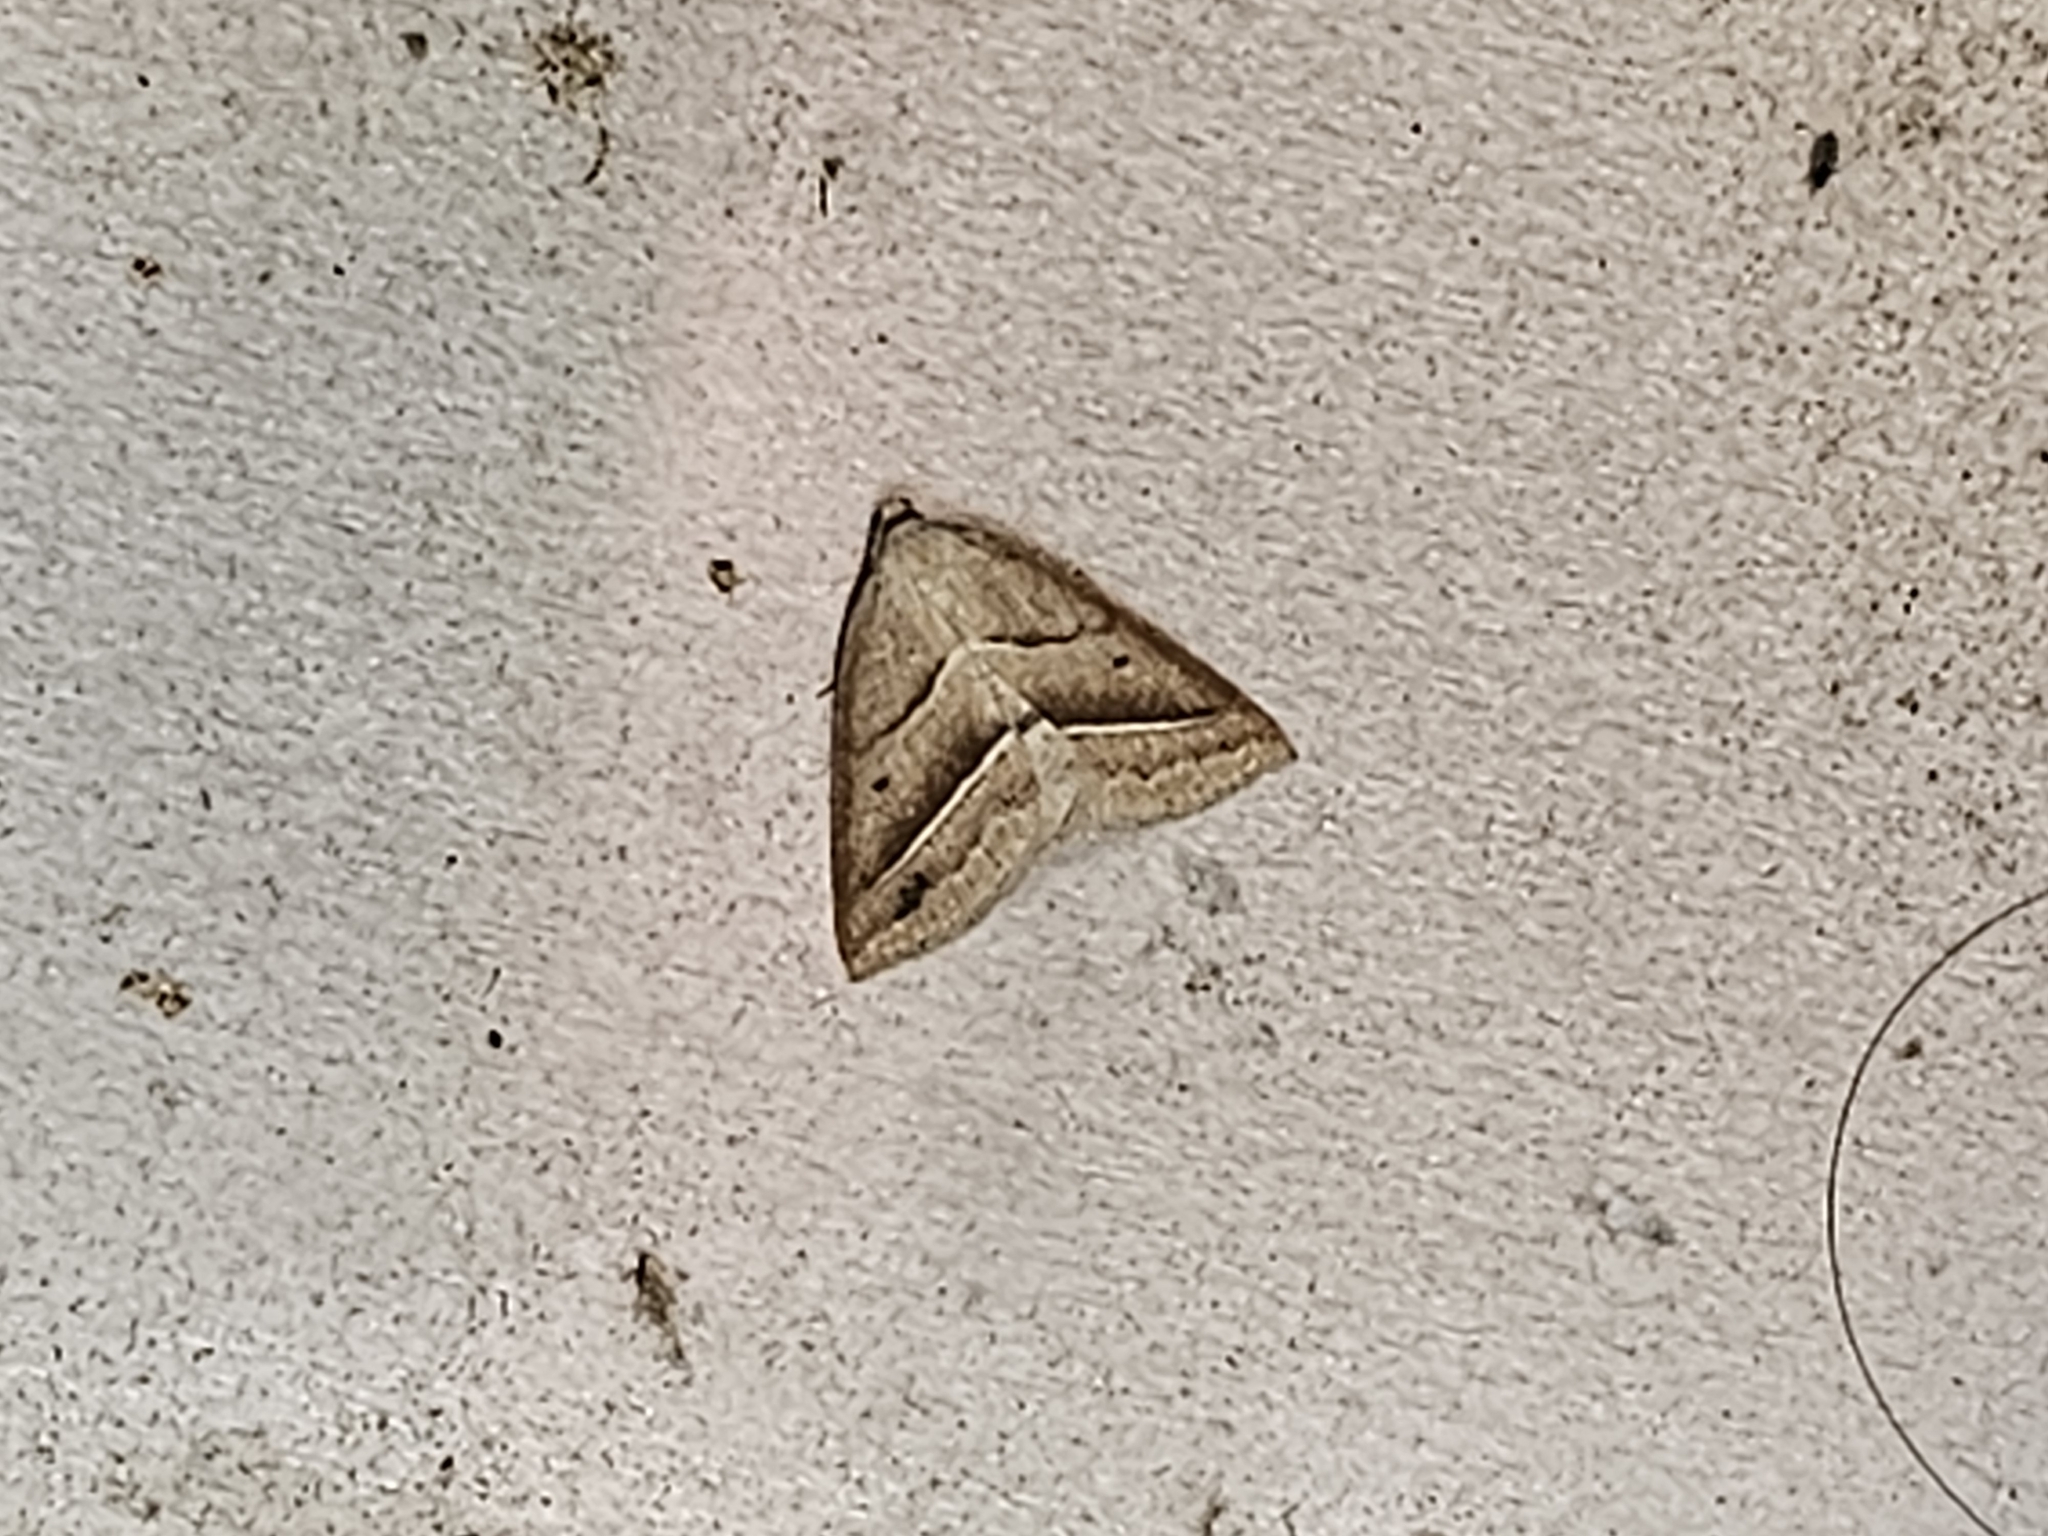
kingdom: Animalia
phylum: Arthropoda
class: Insecta
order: Lepidoptera
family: Pterophoridae
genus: Pterophorus
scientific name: Pterophorus Petrophora chlorosata
